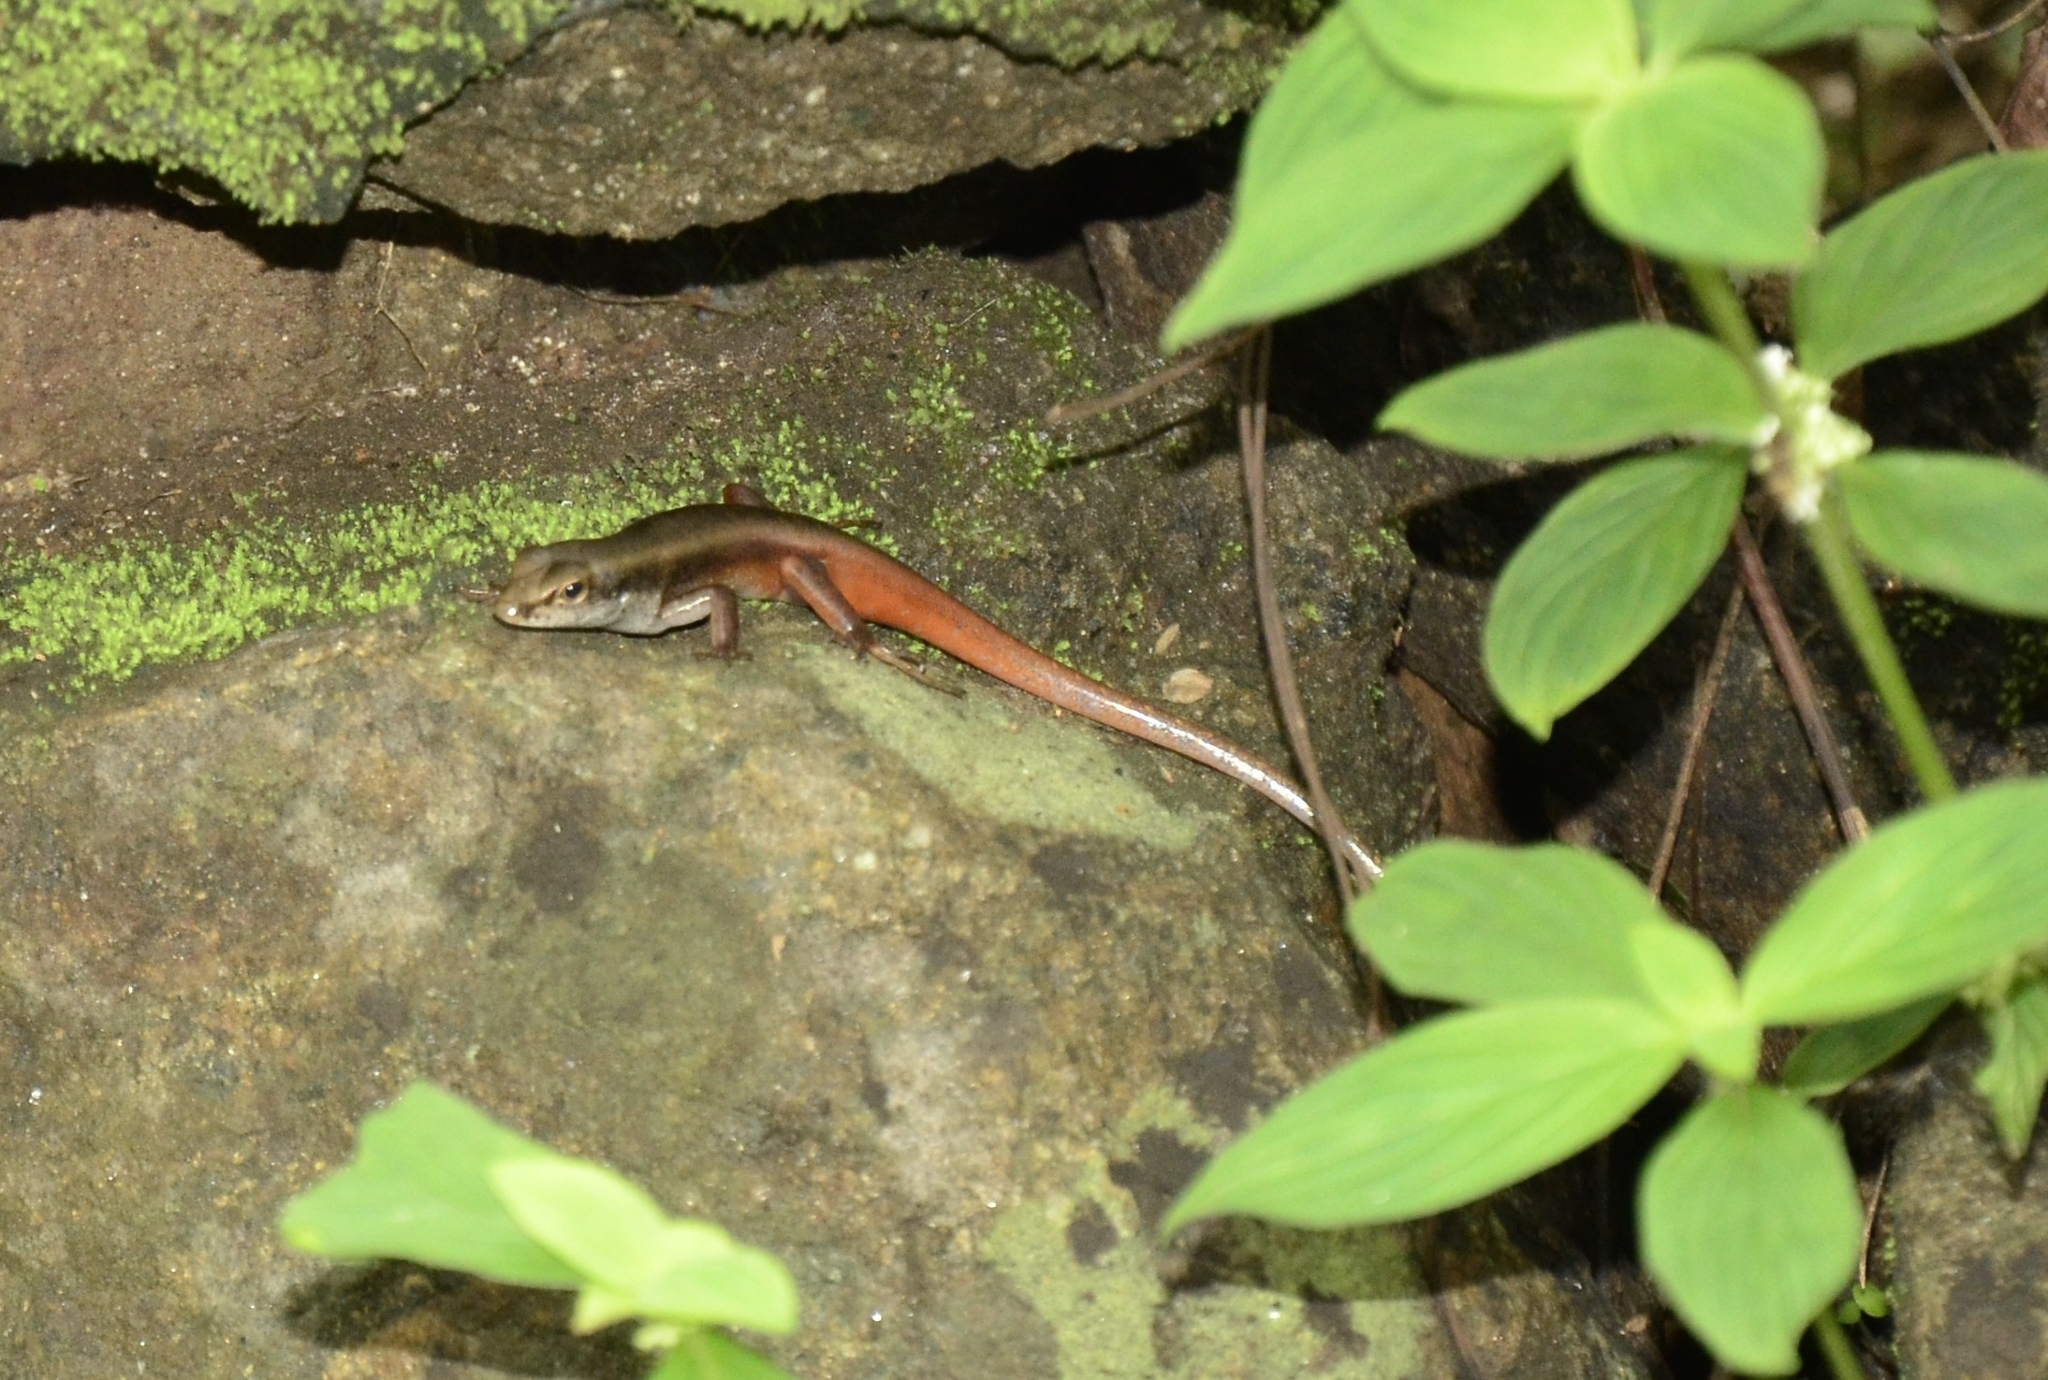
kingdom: Animalia
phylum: Chordata
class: Squamata
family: Scincidae
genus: Sphenomorphus
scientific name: Sphenomorphus dussumieri
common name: Dussumier's forest skink
